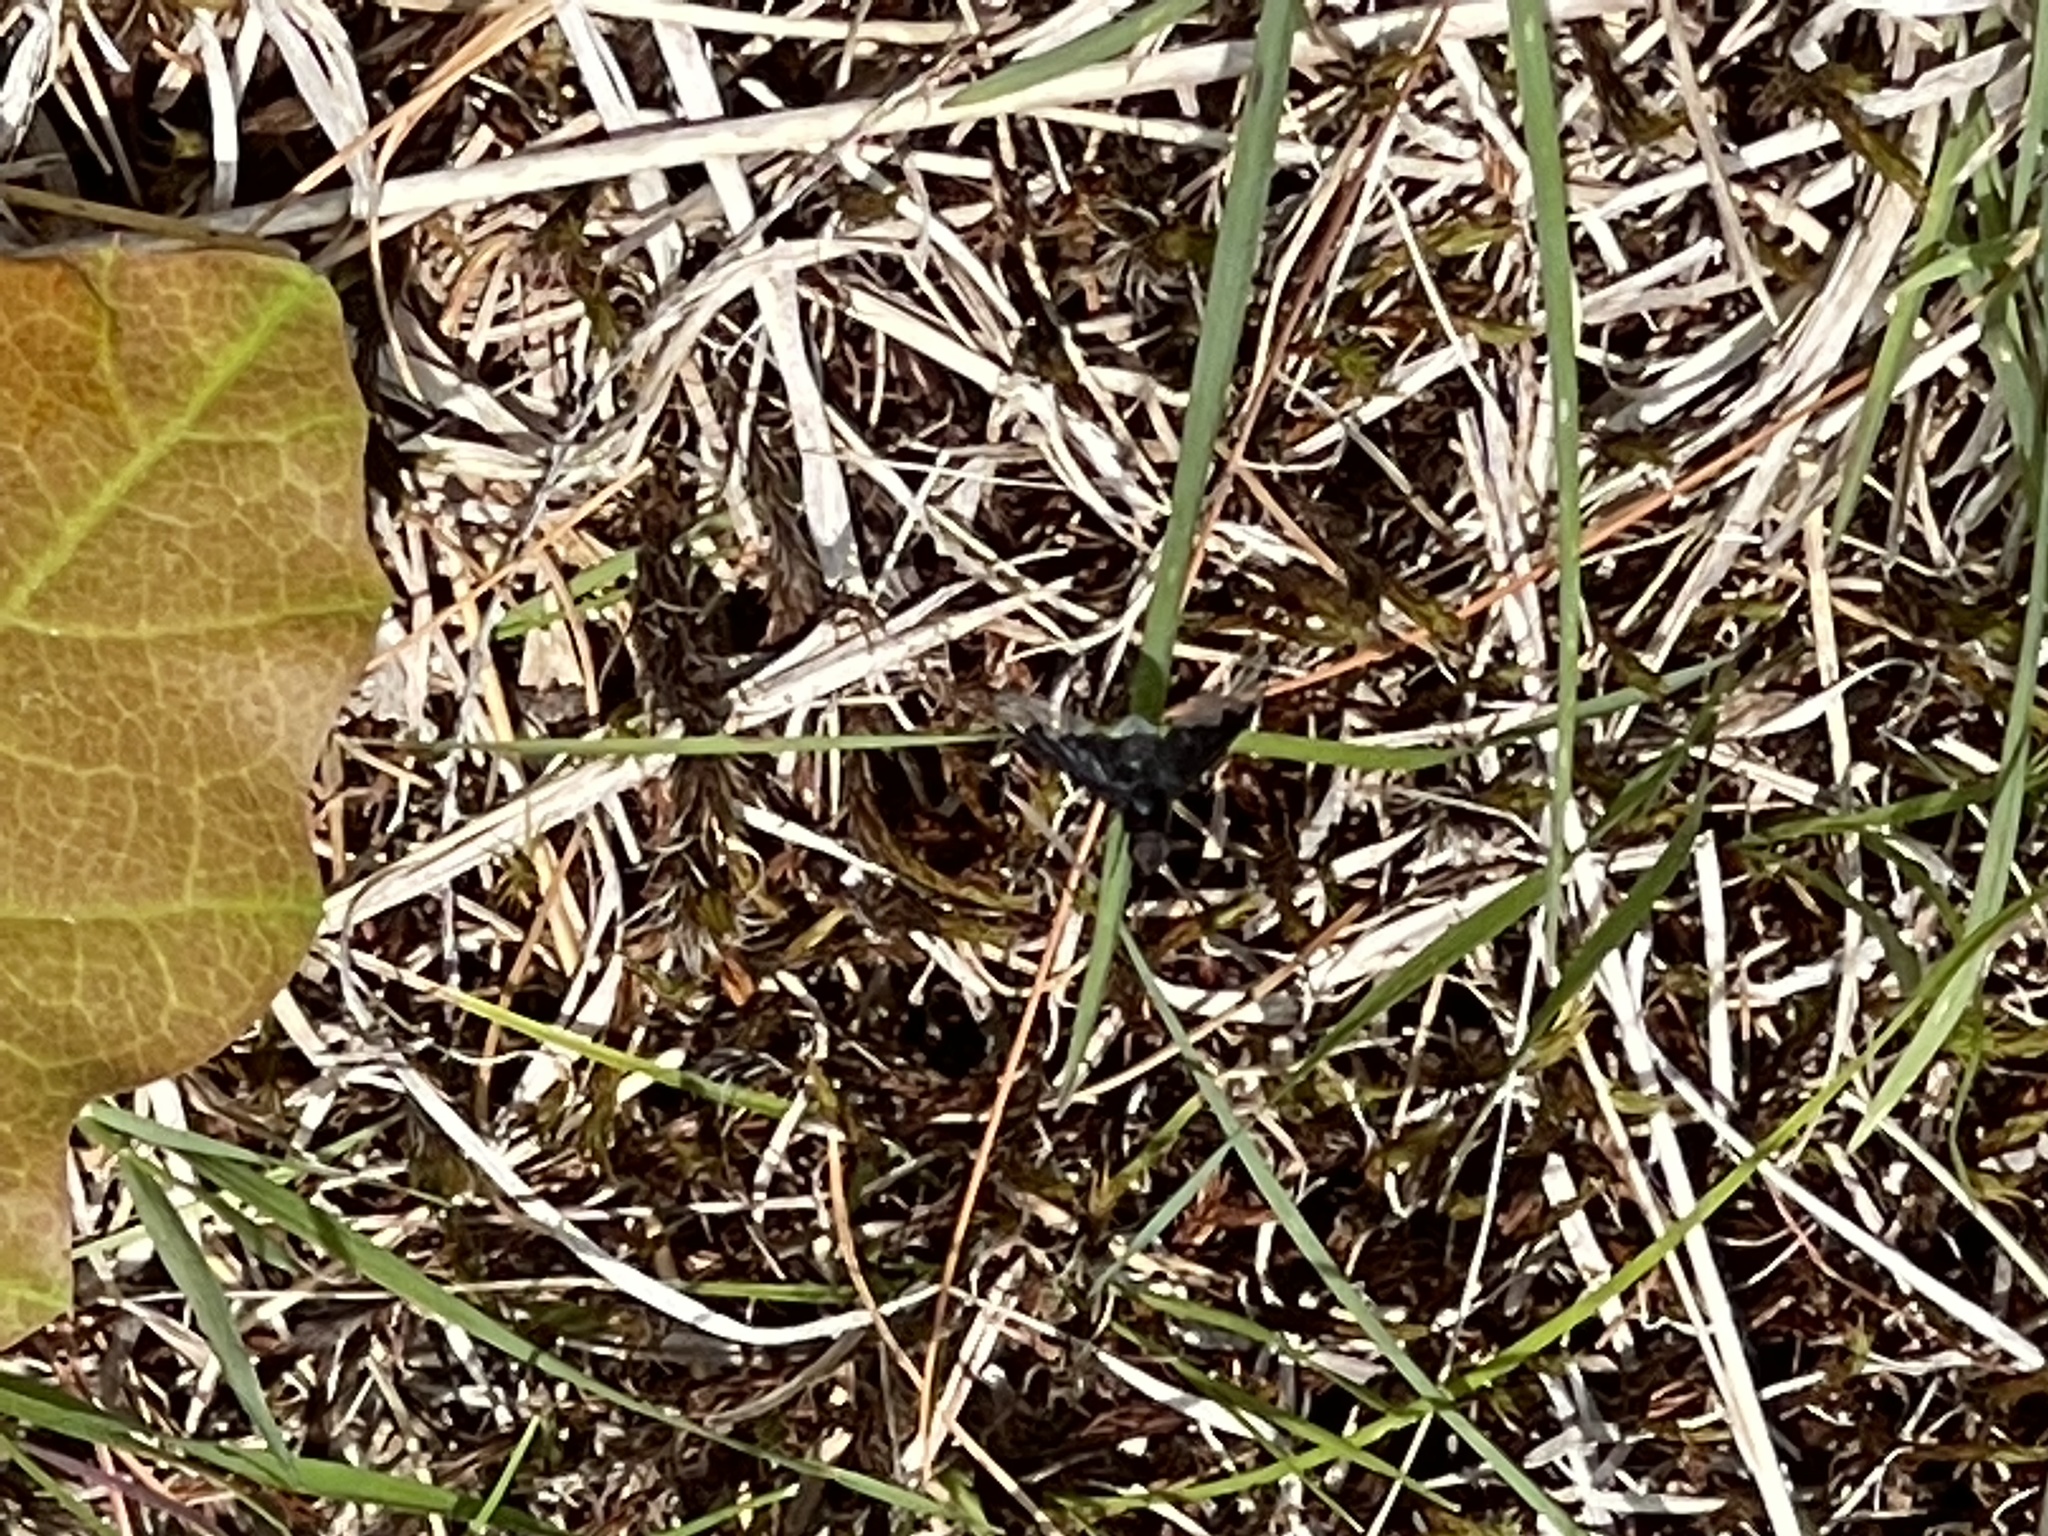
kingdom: Animalia
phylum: Arthropoda
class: Insecta
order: Diptera
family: Bombyliidae
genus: Anthrax
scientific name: Anthrax analis
